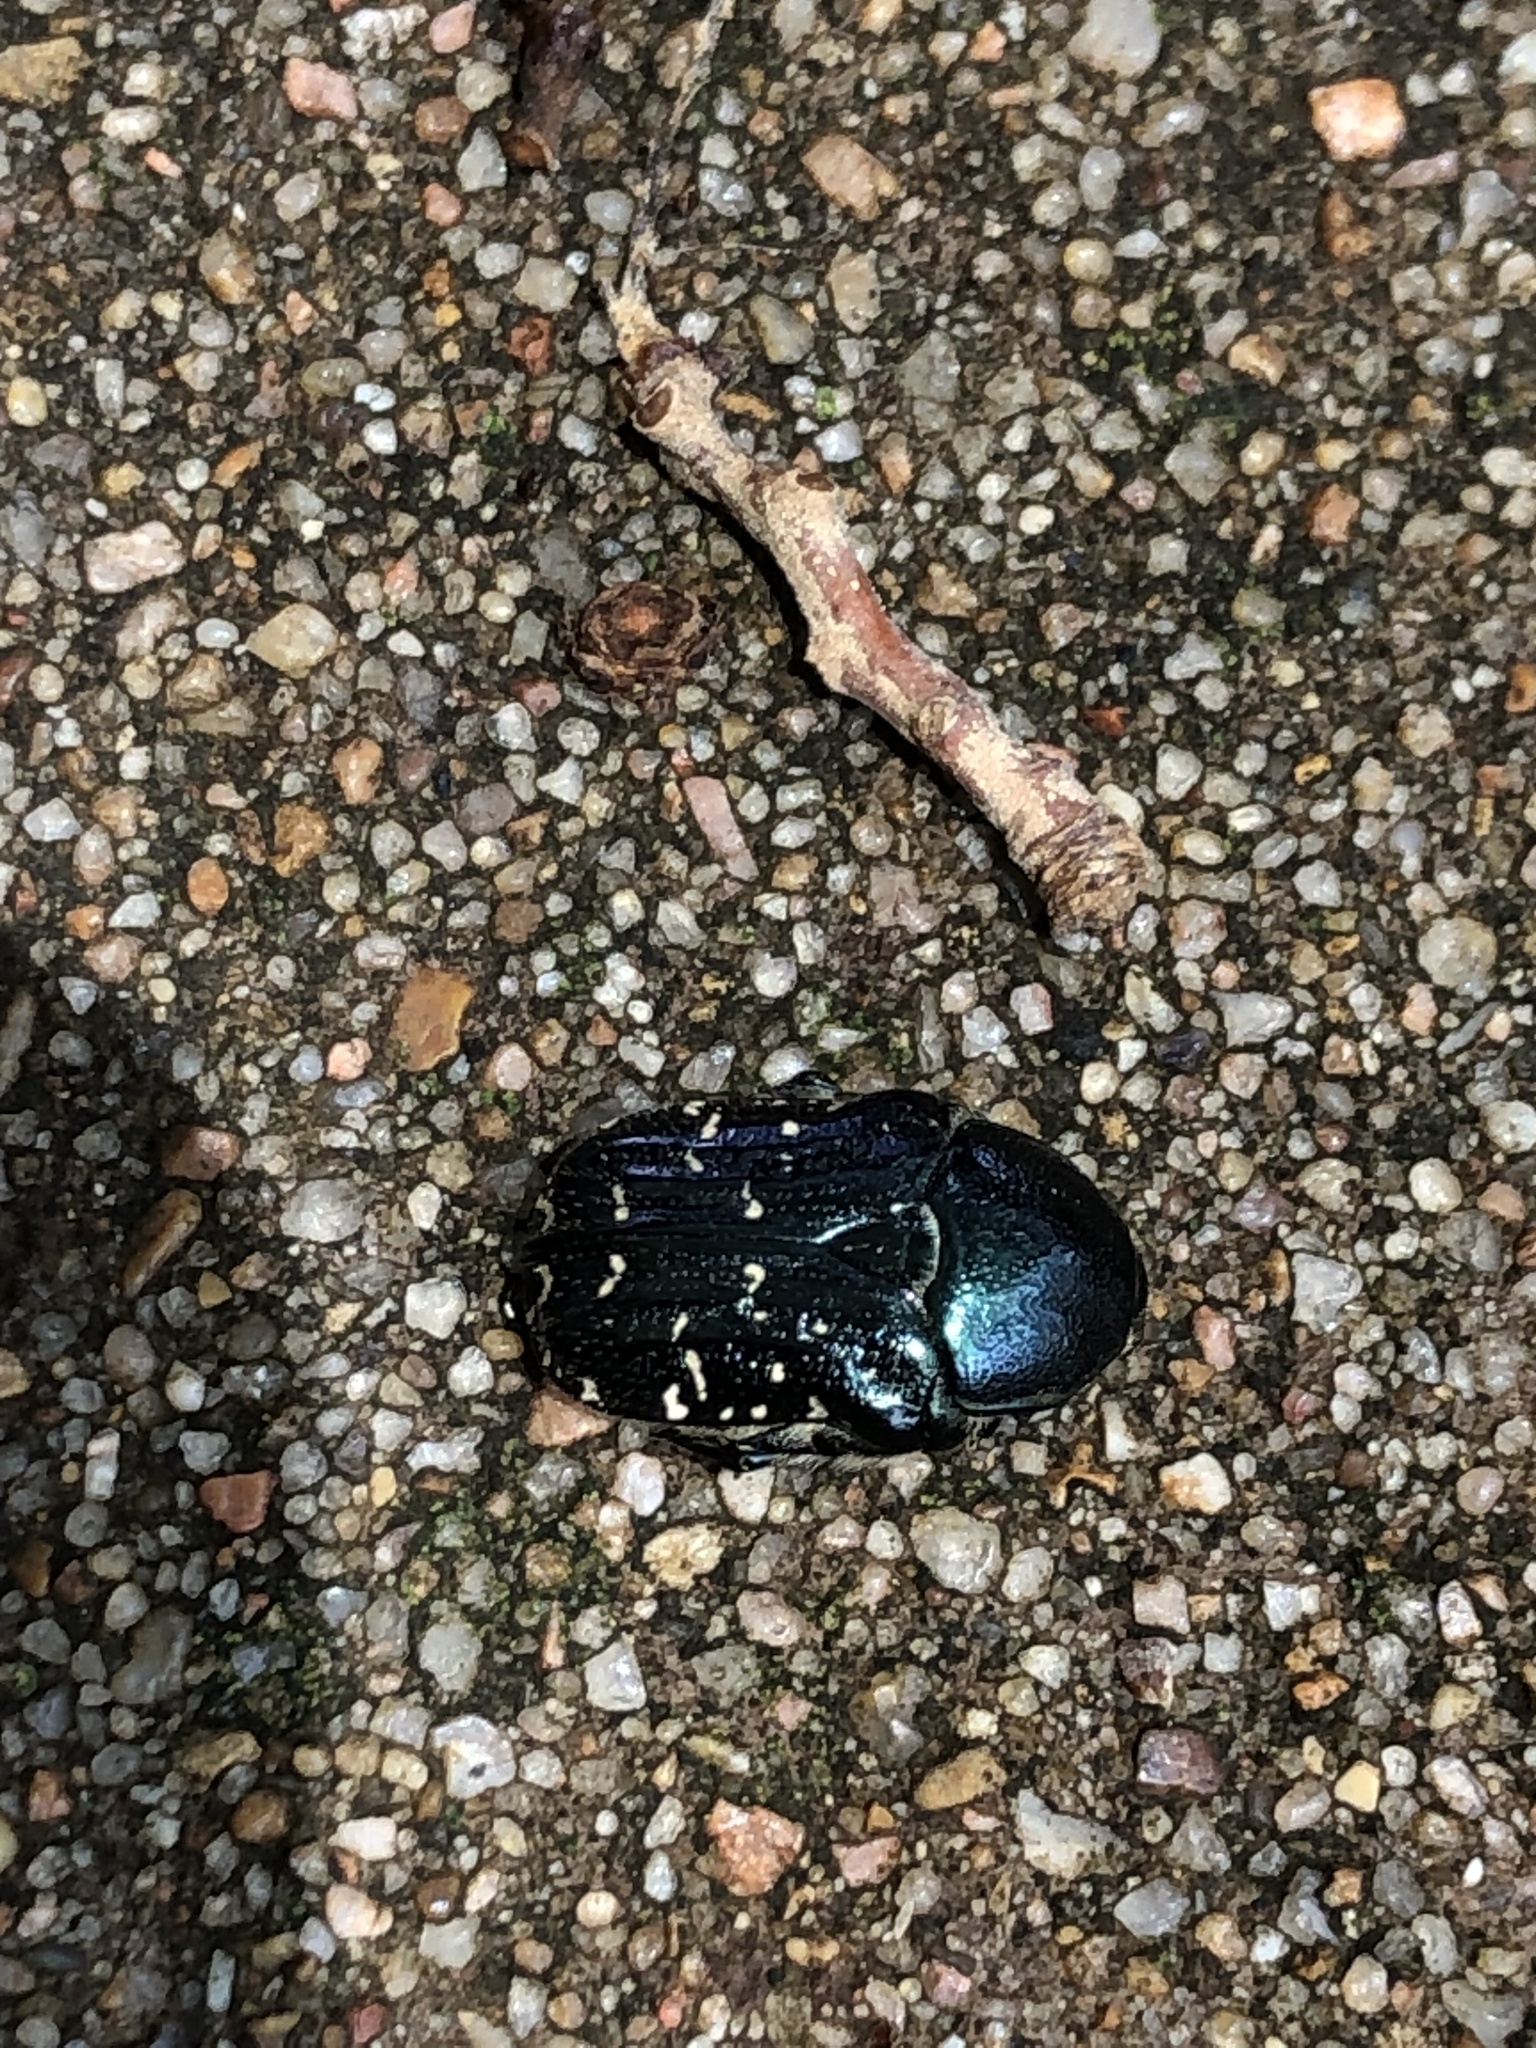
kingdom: Animalia
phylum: Arthropoda
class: Insecta
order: Coleoptera
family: Scarabaeidae
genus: Euphoria
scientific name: Euphoria sepulcralis
